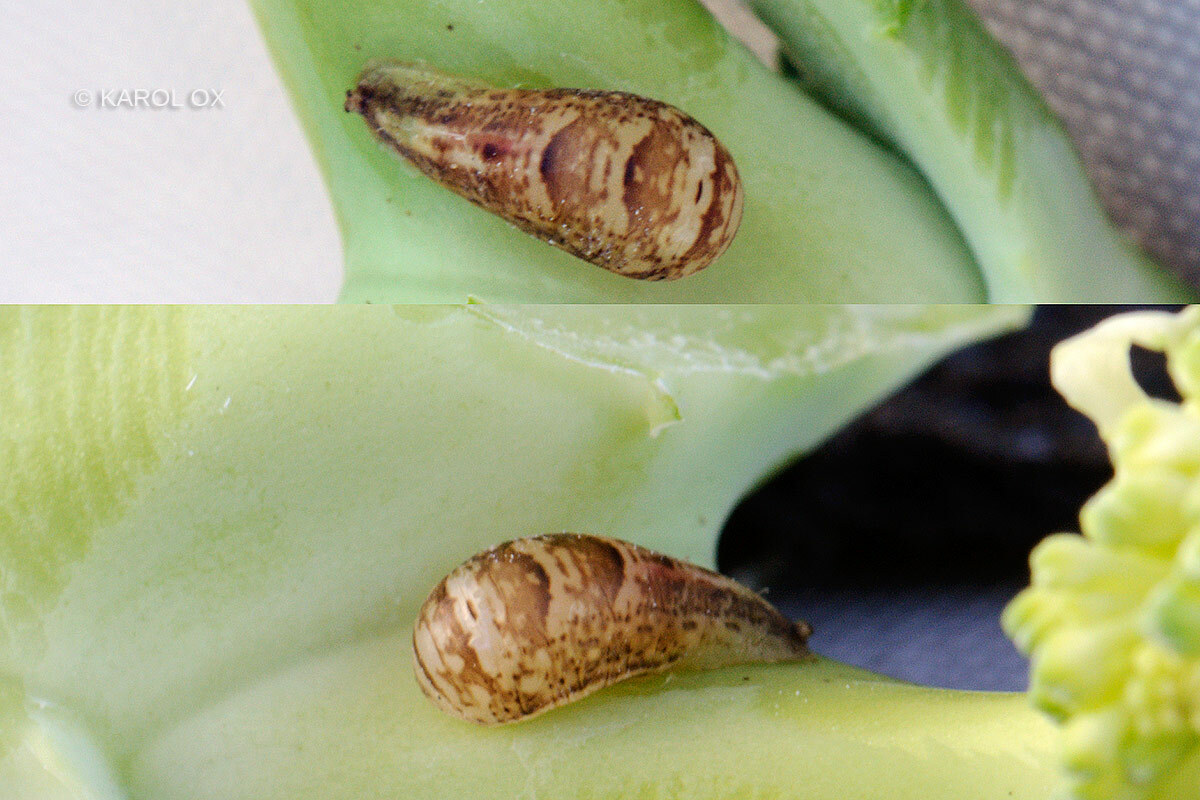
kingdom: Animalia
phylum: Arthropoda
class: Insecta
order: Diptera
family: Syrphidae
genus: Episyrphus
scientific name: Episyrphus balteatus
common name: Marmalade hoverfly
